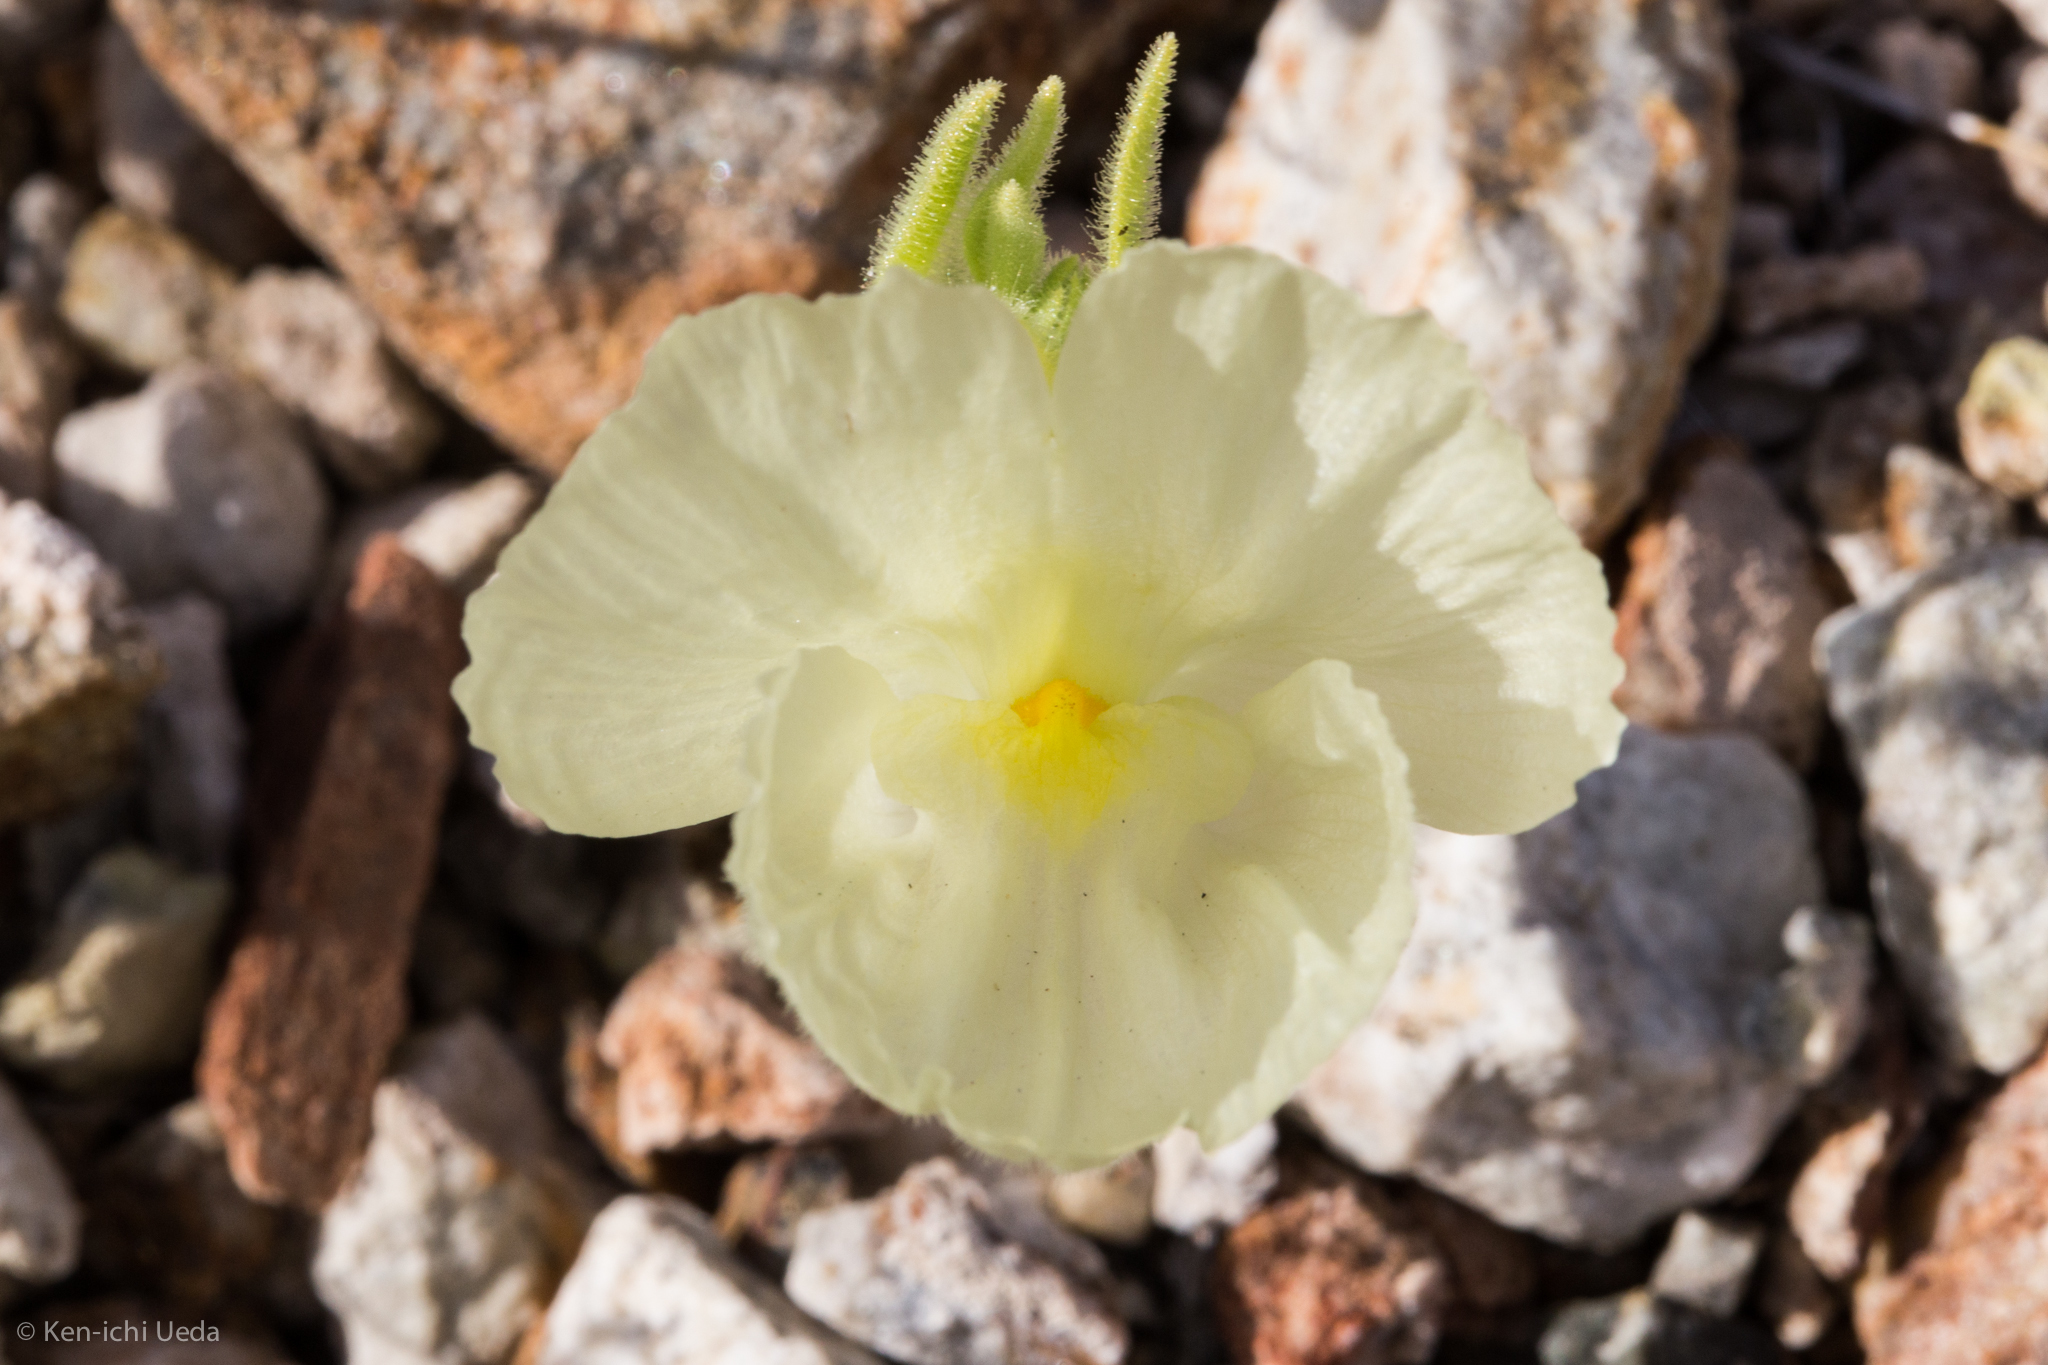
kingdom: Plantae
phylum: Tracheophyta
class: Magnoliopsida
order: Lamiales
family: Plantaginaceae
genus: Mohavea
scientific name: Mohavea confertiflora
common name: Ghost flower
